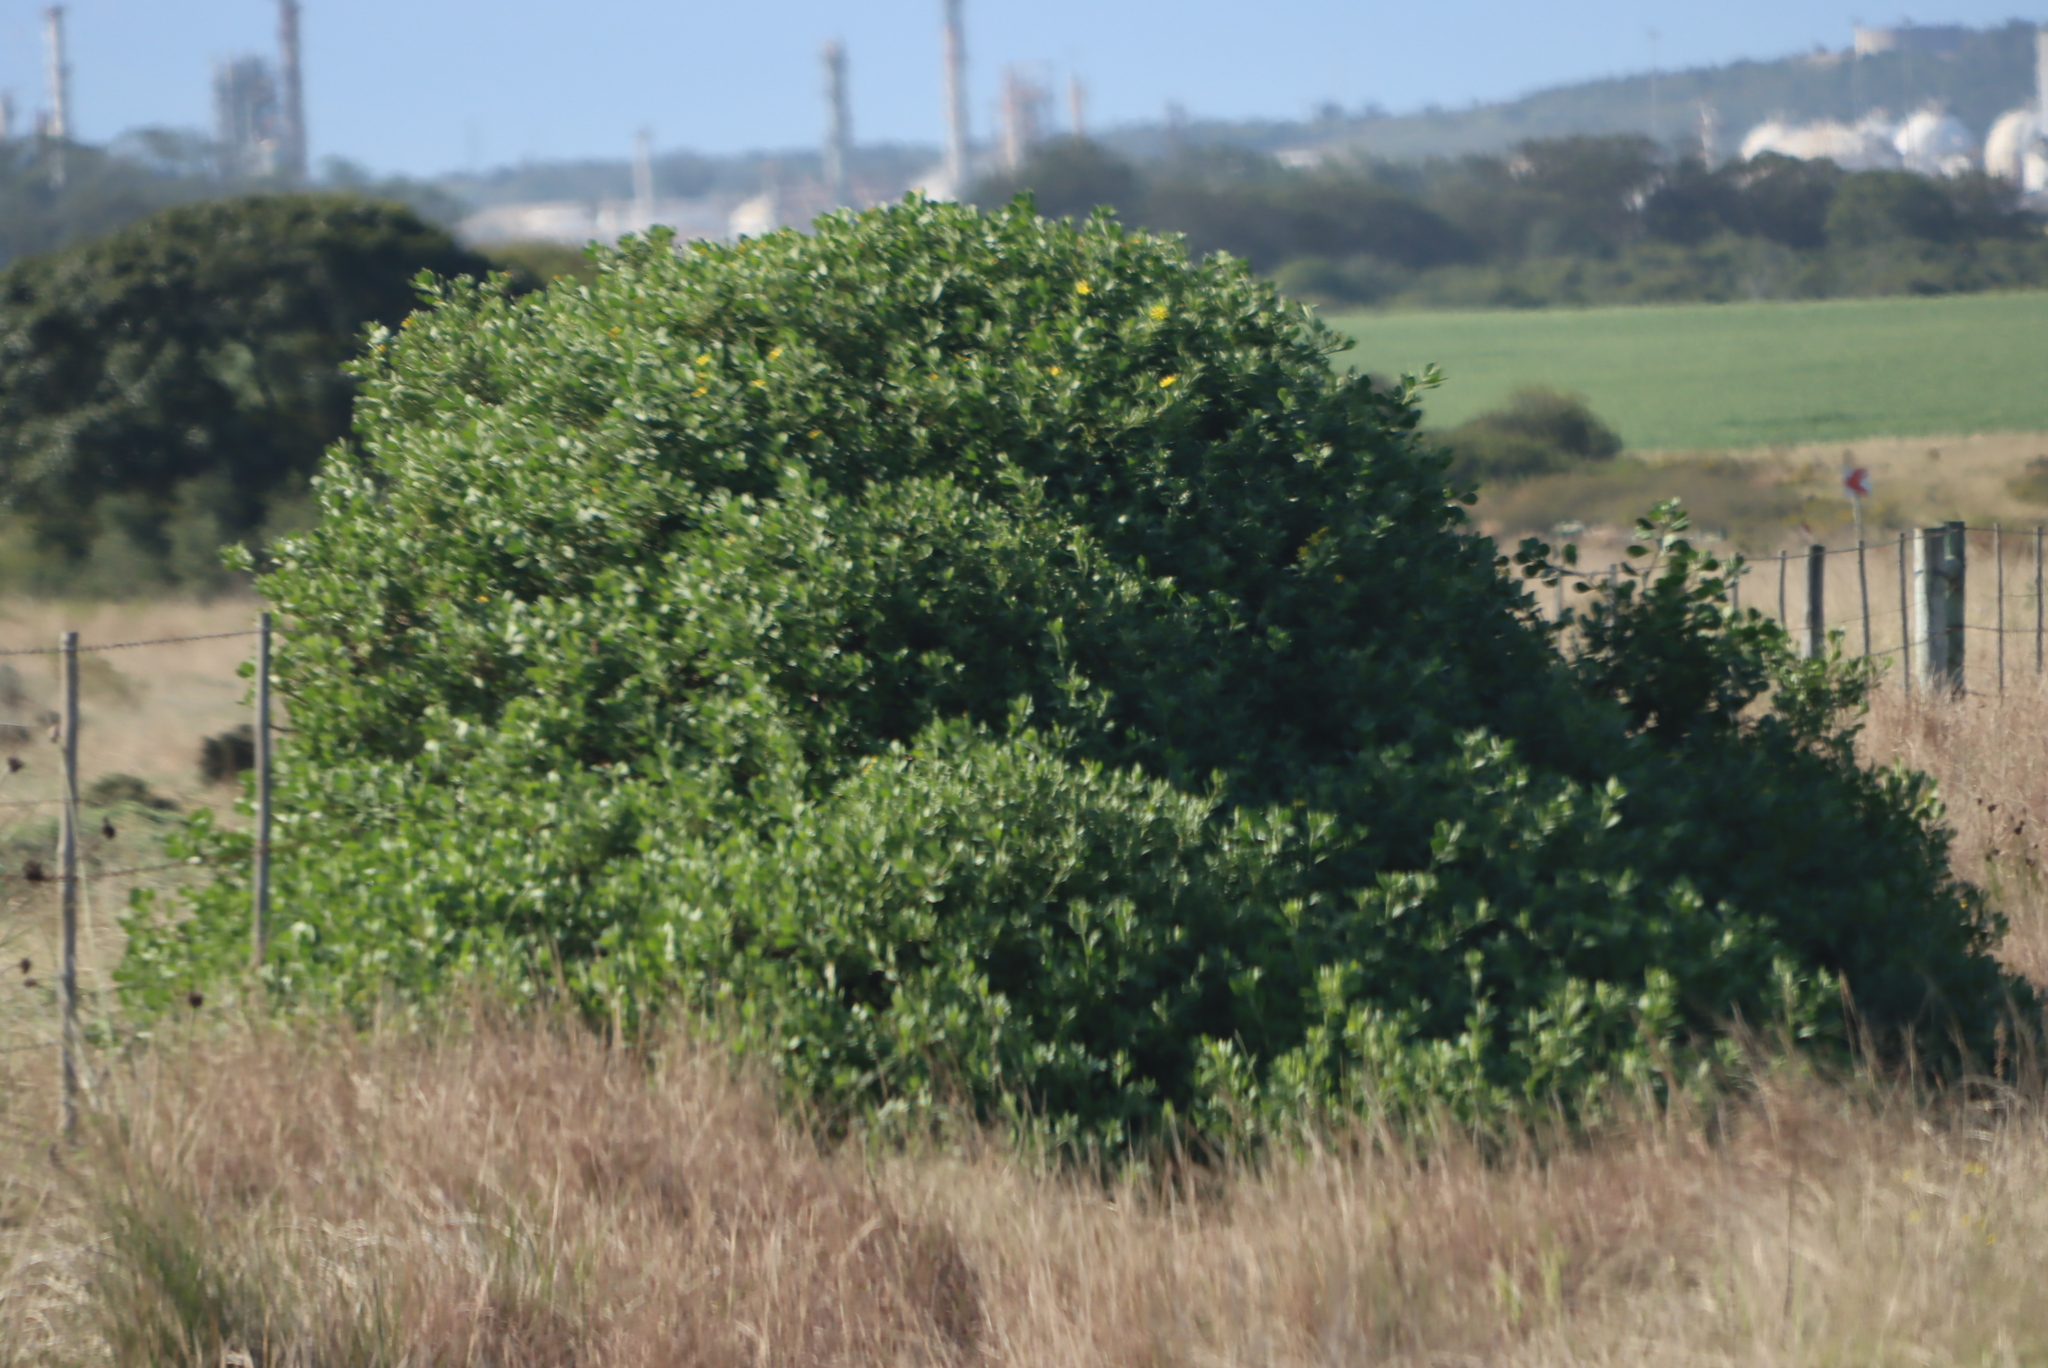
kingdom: Plantae
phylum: Tracheophyta
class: Magnoliopsida
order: Asterales
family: Asteraceae
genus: Osteospermum
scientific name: Osteospermum moniliferum
